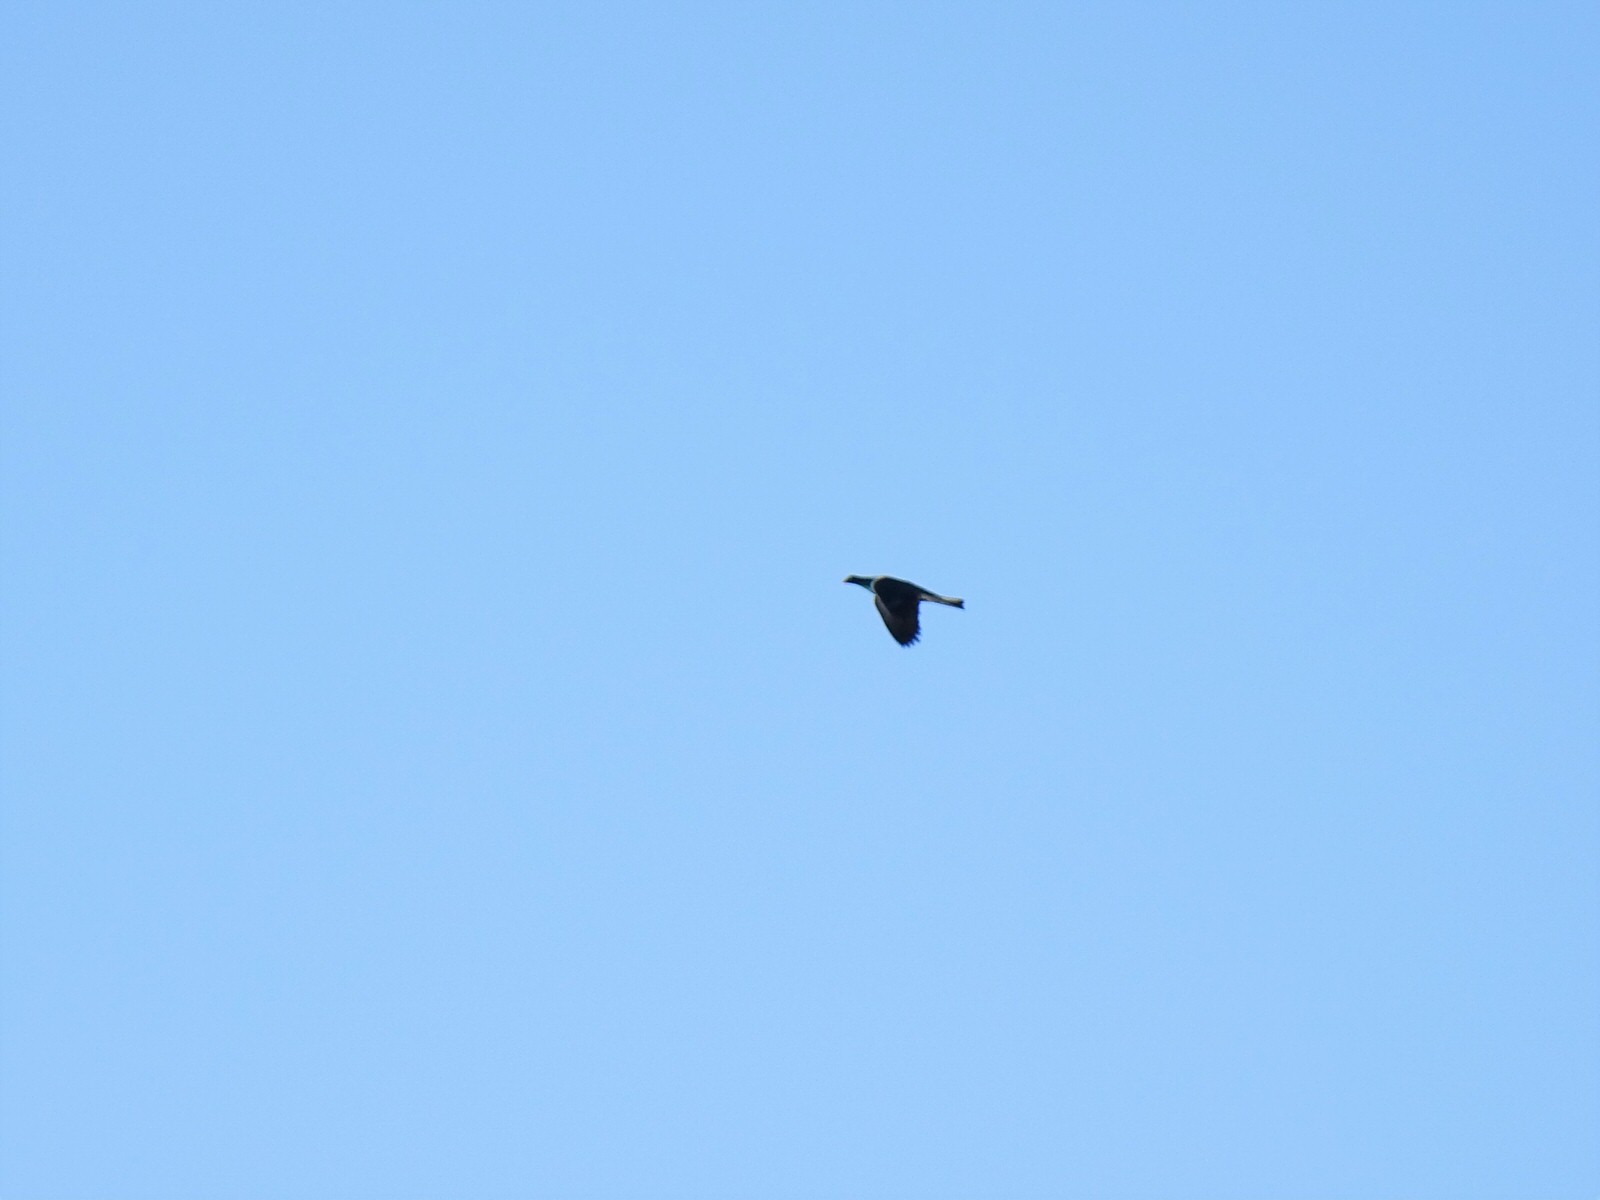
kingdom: Animalia
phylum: Chordata
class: Aves
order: Columbiformes
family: Columbidae
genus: Hemiphaga
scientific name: Hemiphaga novaeseelandiae
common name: New zealand pigeon
